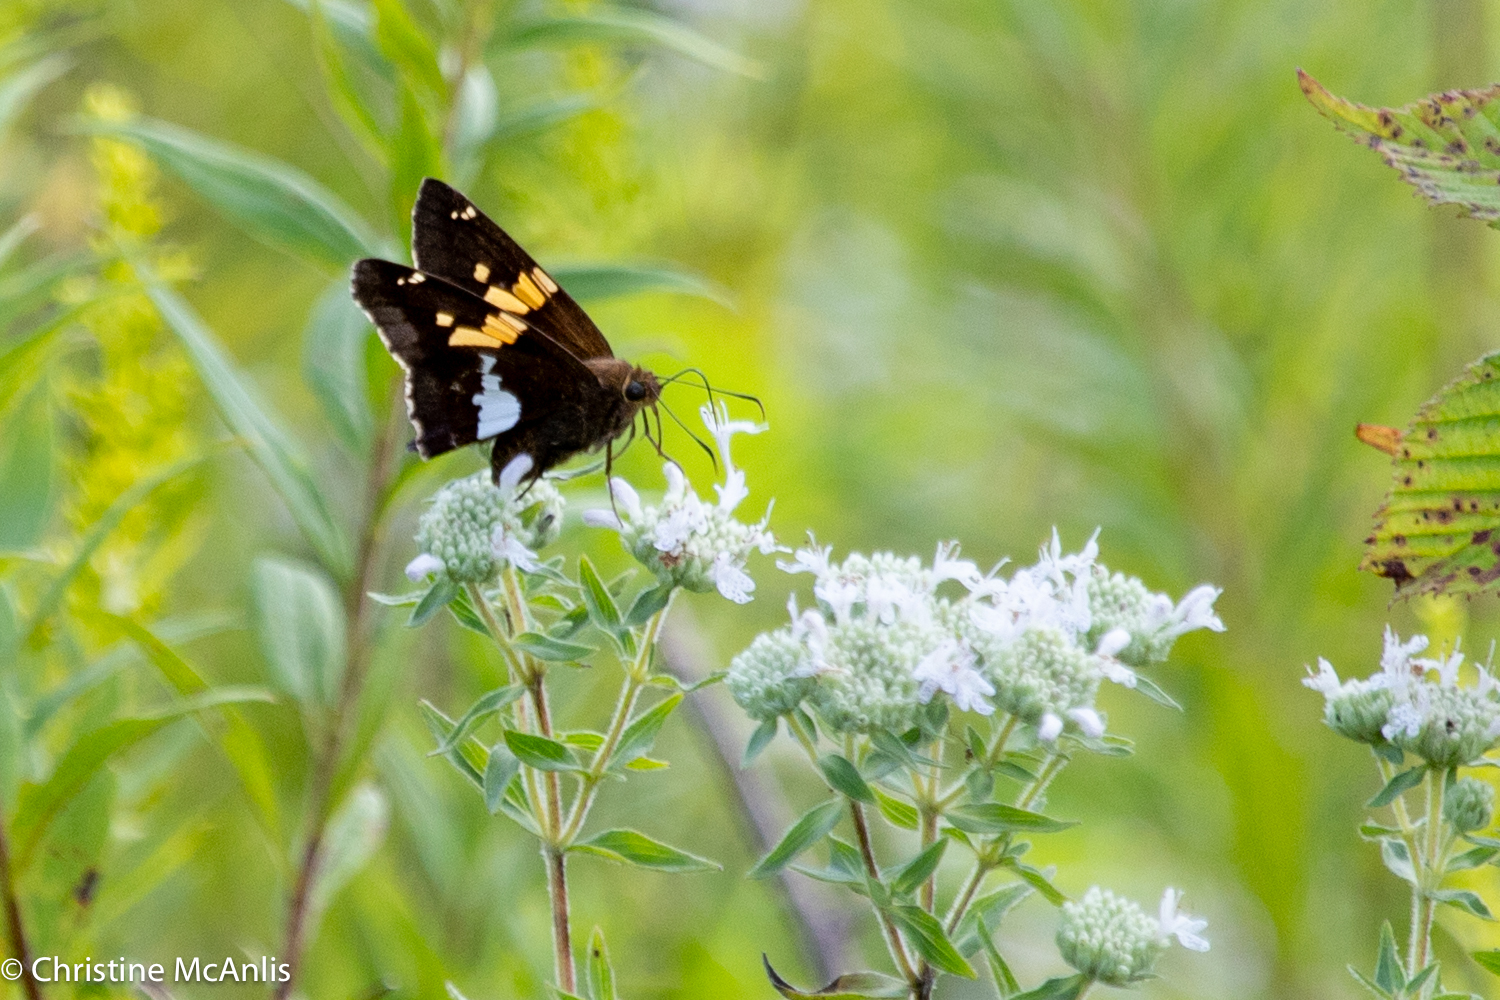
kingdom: Animalia
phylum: Arthropoda
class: Insecta
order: Lepidoptera
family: Hesperiidae
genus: Epargyreus
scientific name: Epargyreus clarus
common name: Silver-spotted skipper
